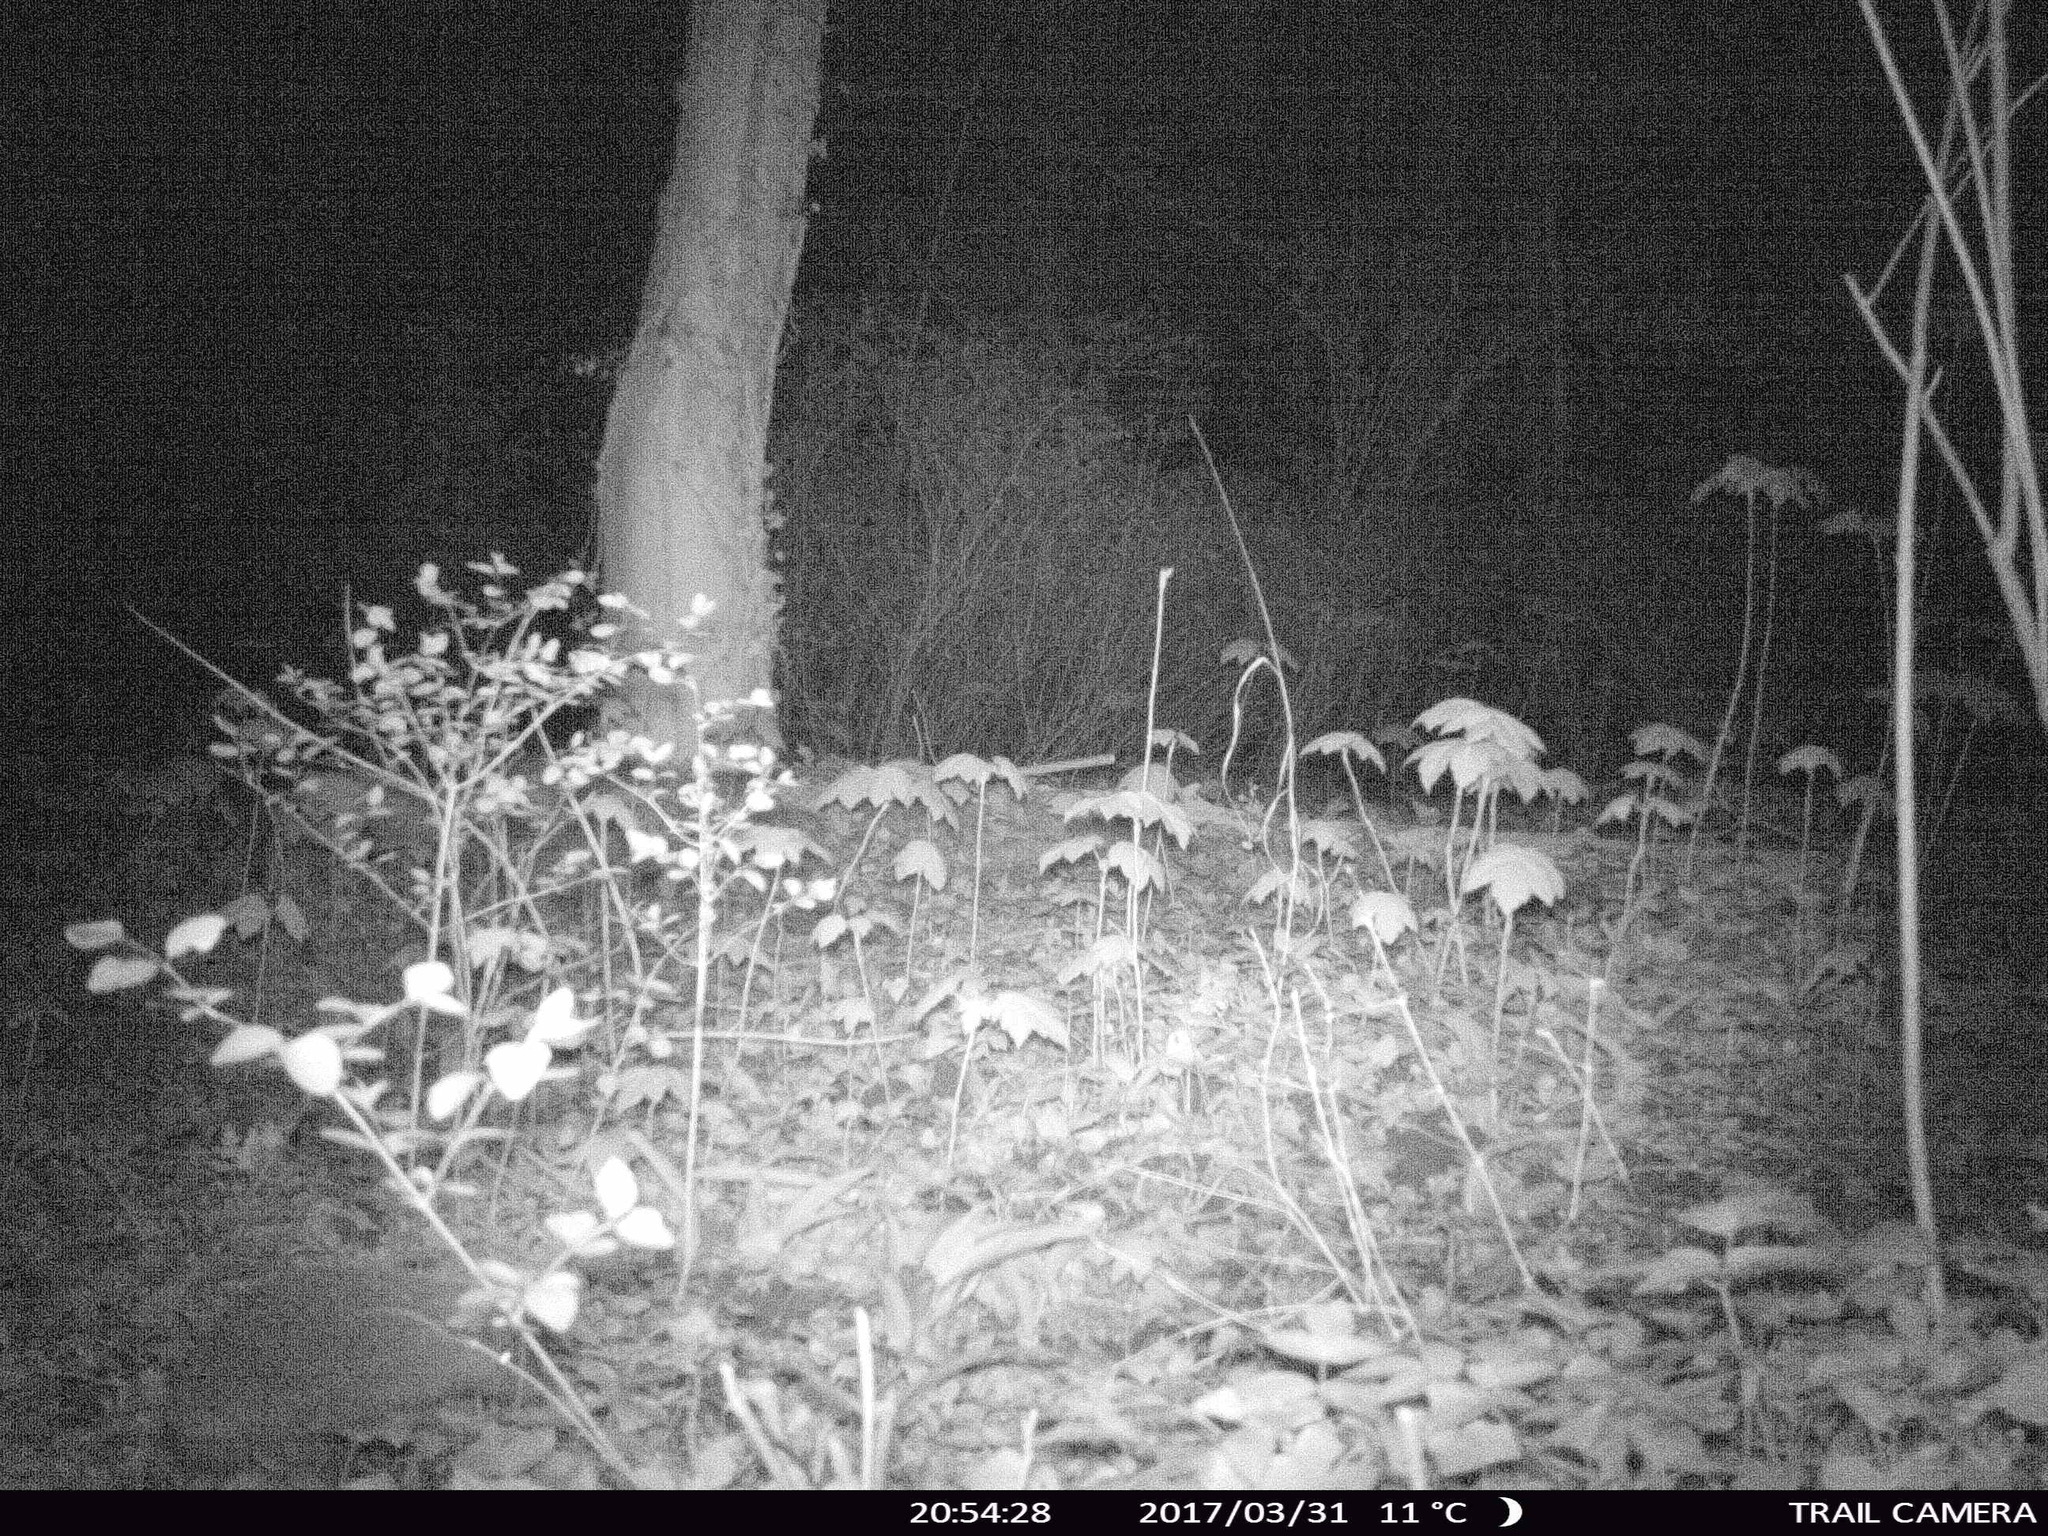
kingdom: Animalia
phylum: Chordata
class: Mammalia
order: Erinaceomorpha
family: Erinaceidae
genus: Erinaceus
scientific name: Erinaceus europaeus
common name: West european hedgehog
